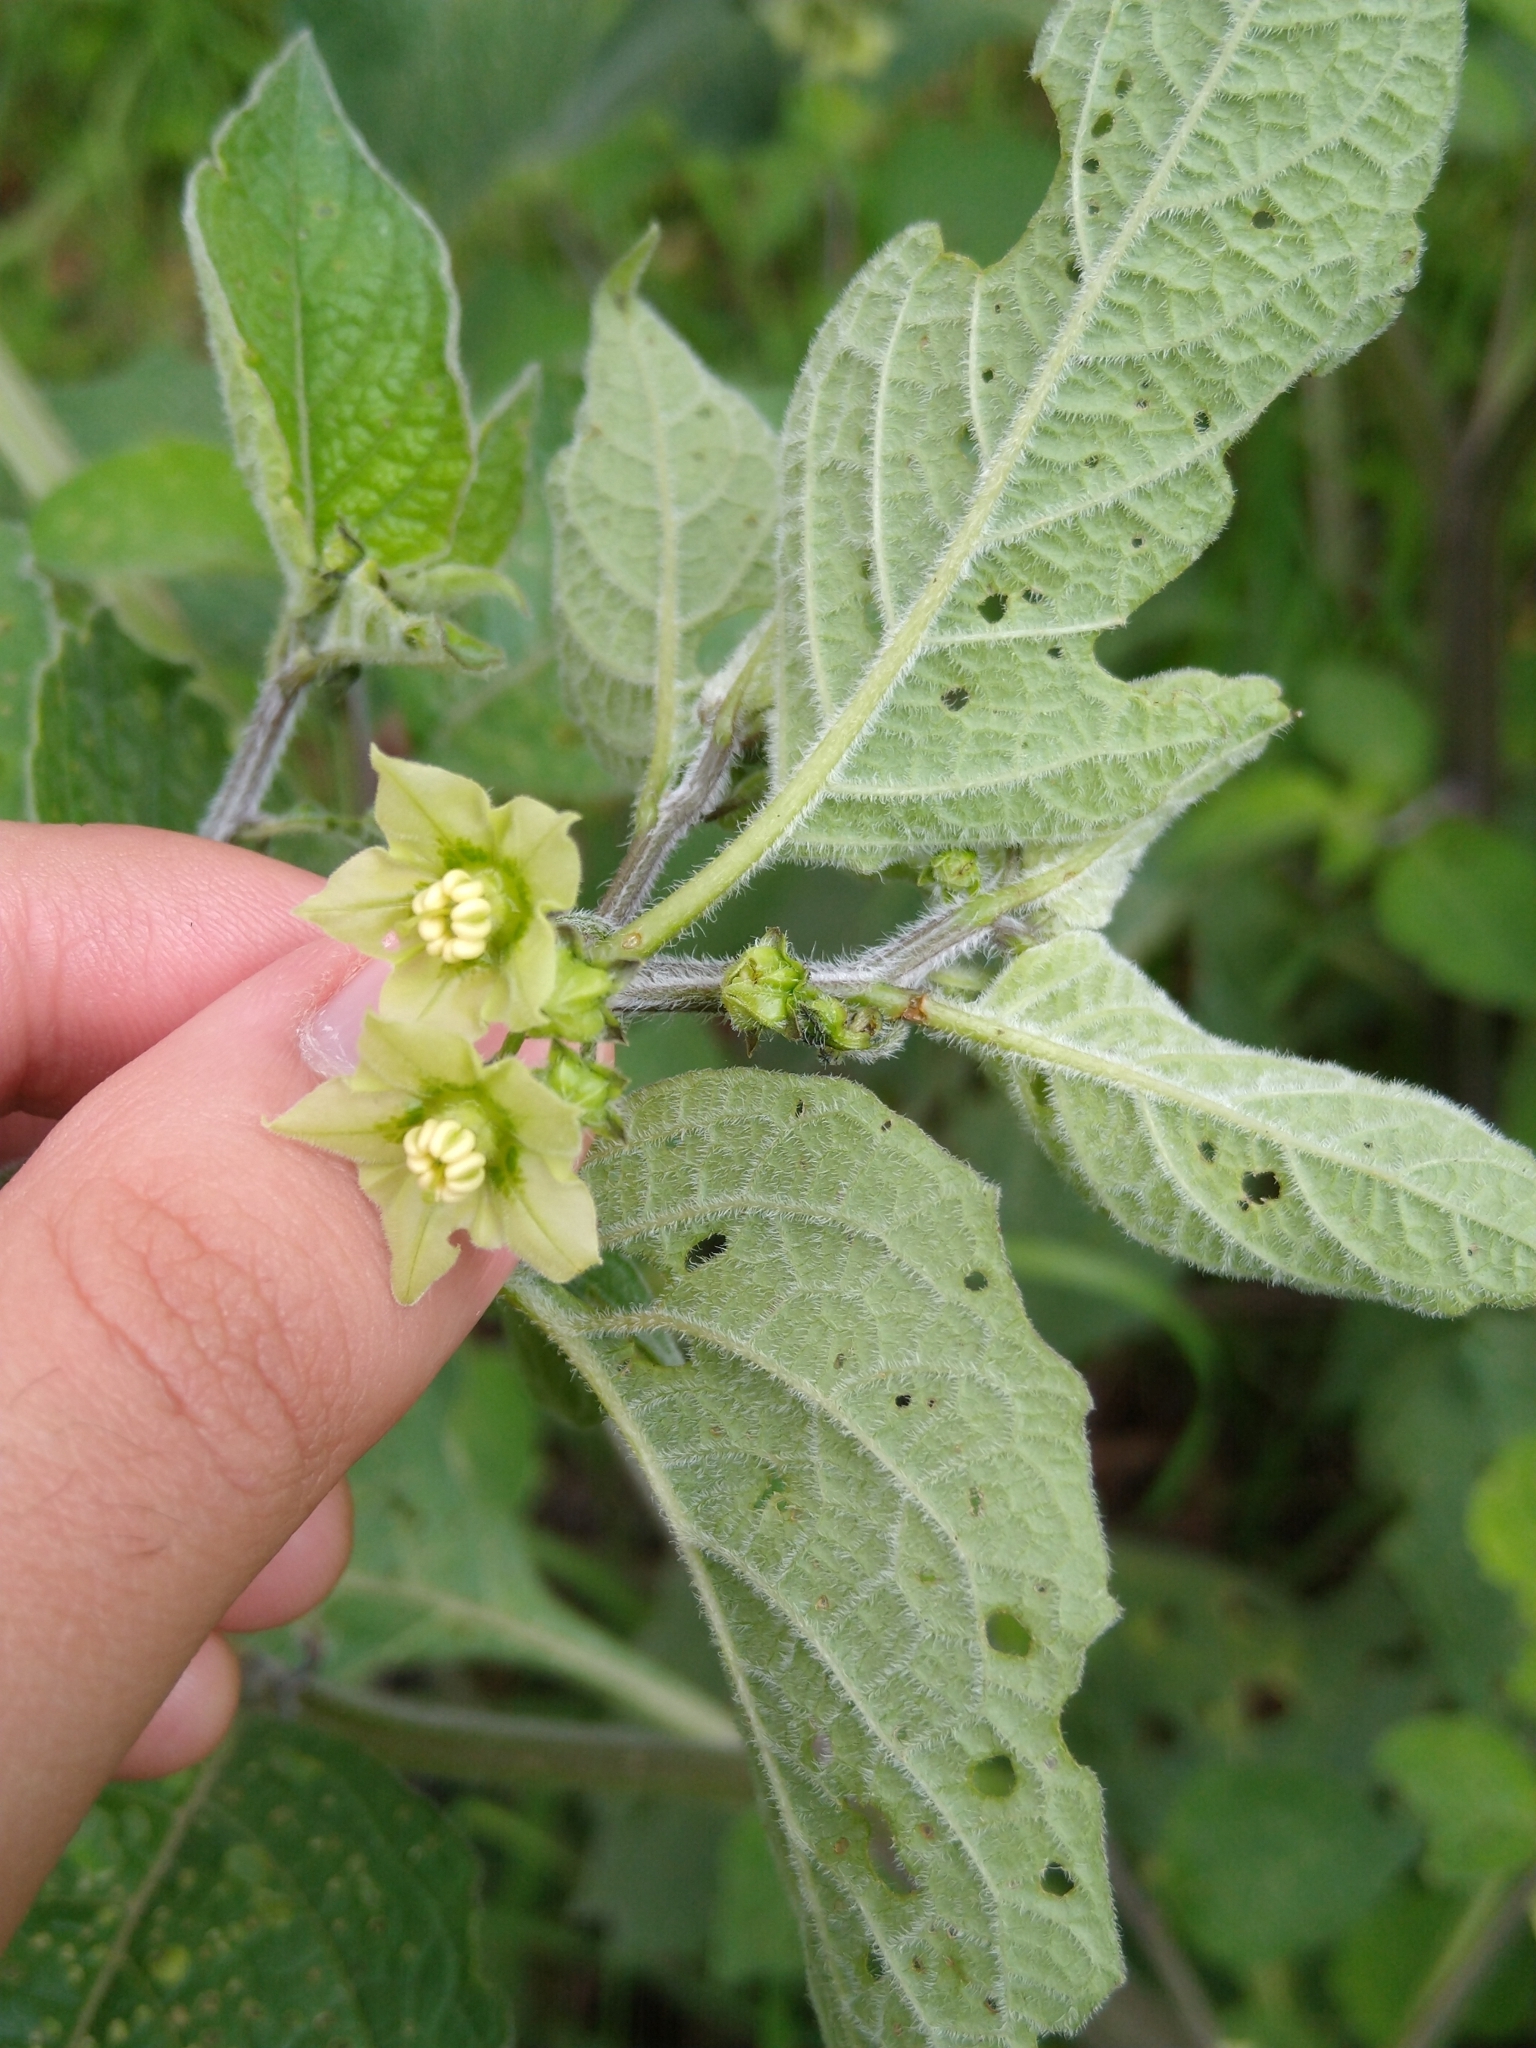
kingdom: Plantae
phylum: Tracheophyta
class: Magnoliopsida
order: Solanales
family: Solanaceae
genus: Jaltomata
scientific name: Jaltomata procumbens
